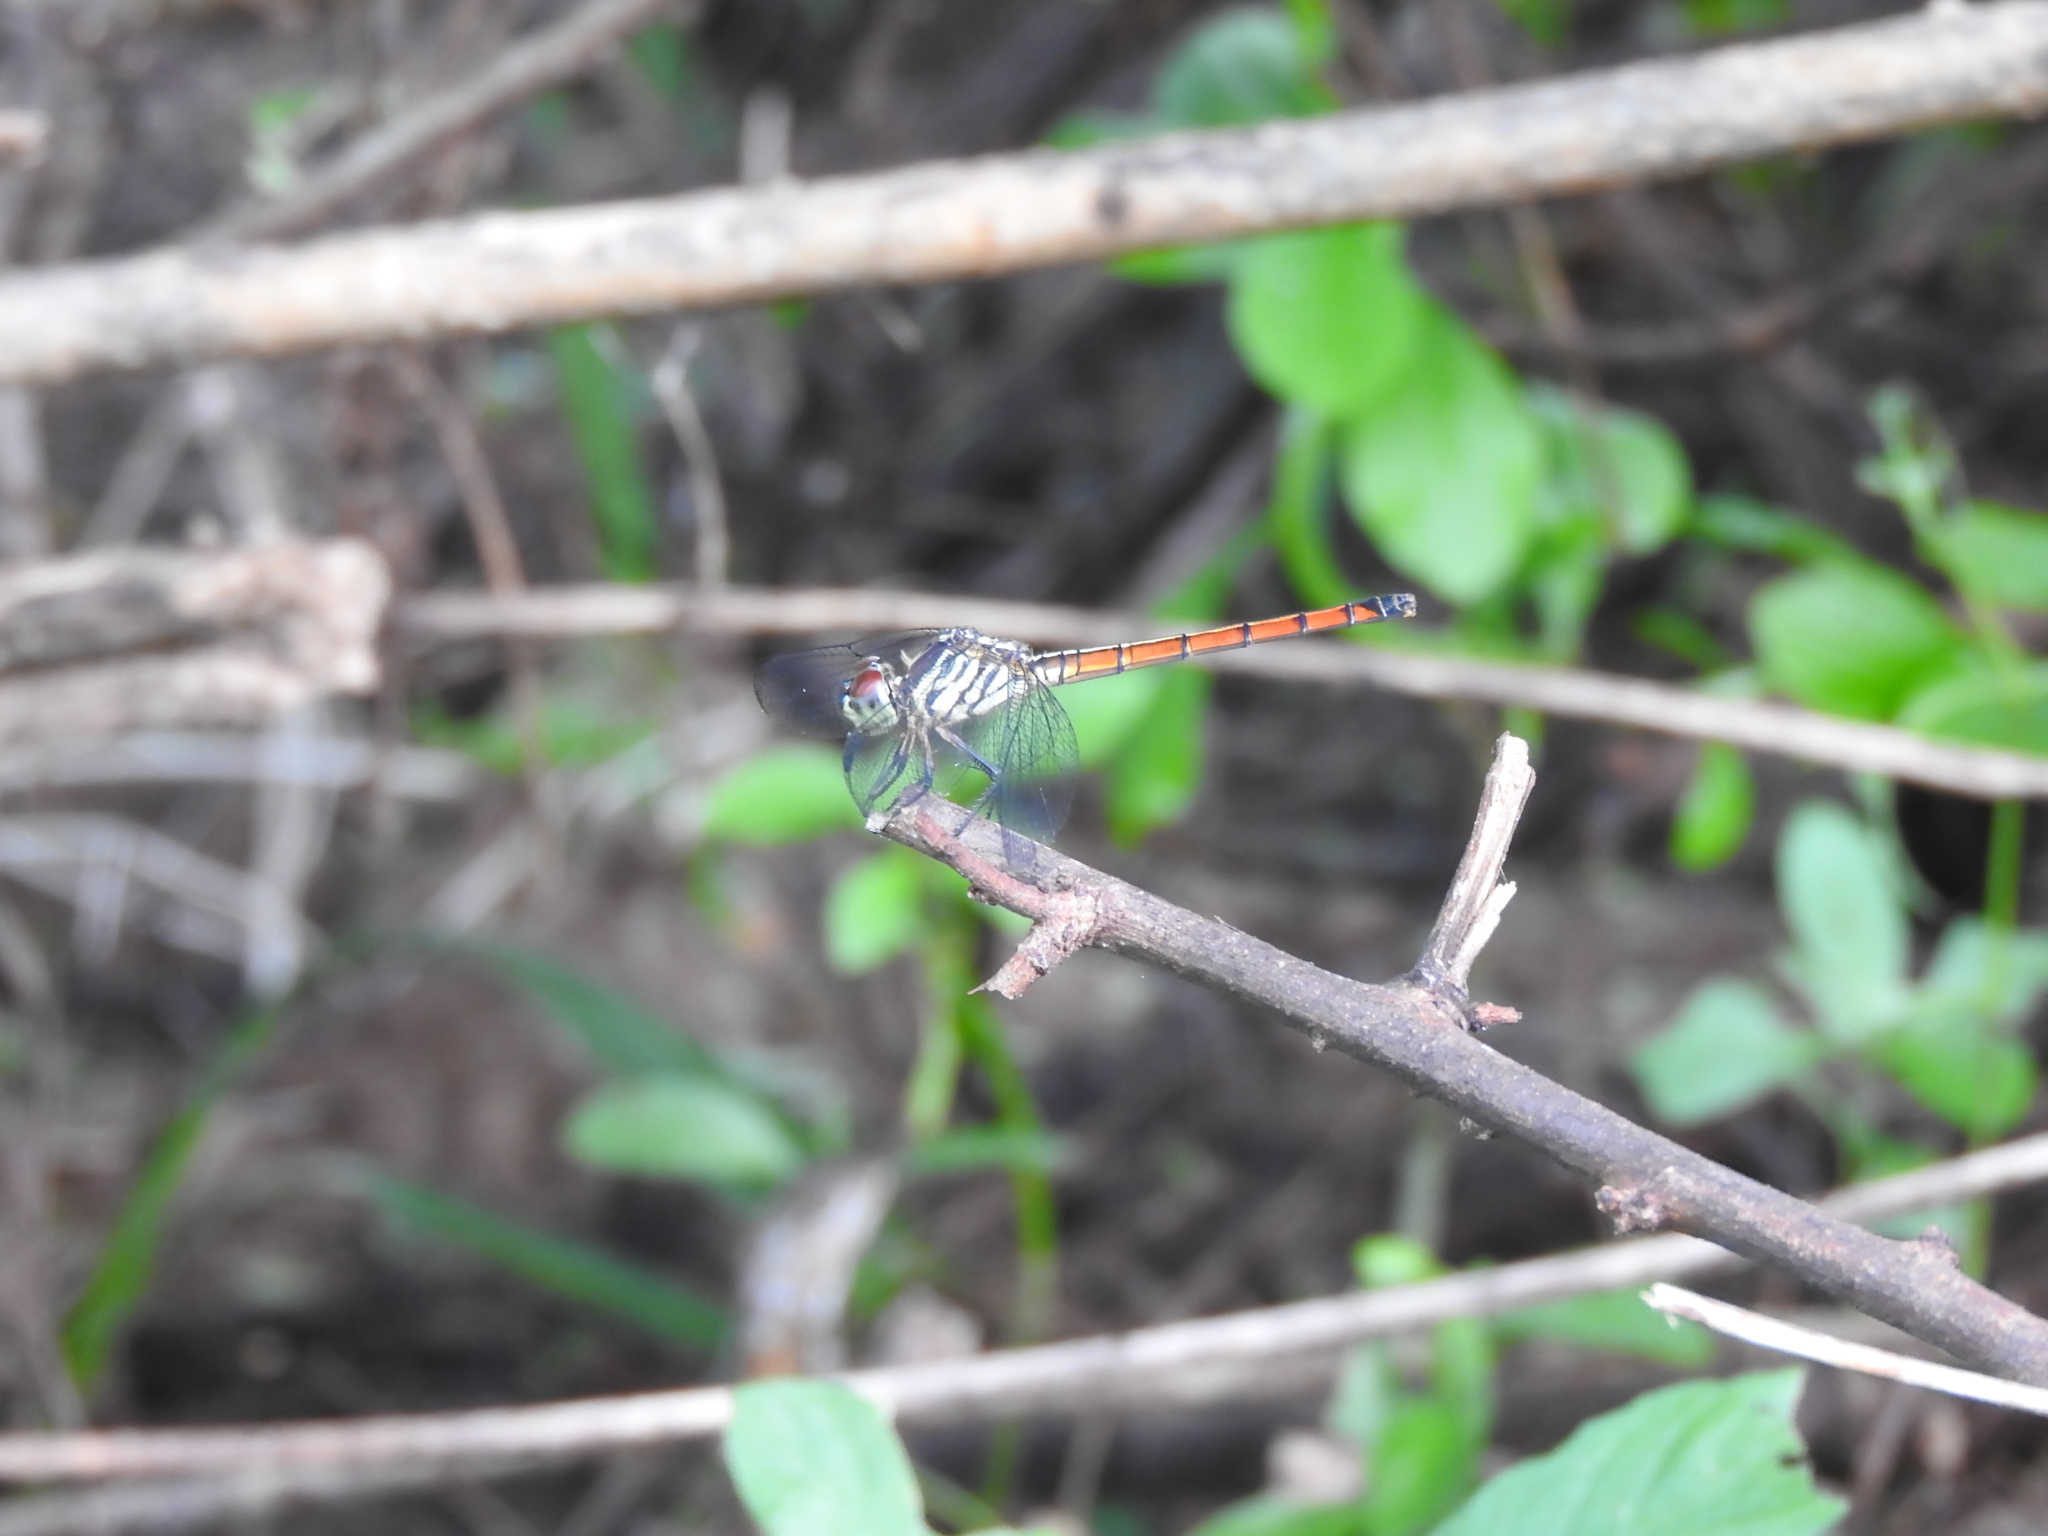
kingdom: Animalia
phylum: Arthropoda
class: Insecta
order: Odonata
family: Libellulidae
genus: Lathrecista
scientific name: Lathrecista asiatica
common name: Scarlet grenadier
